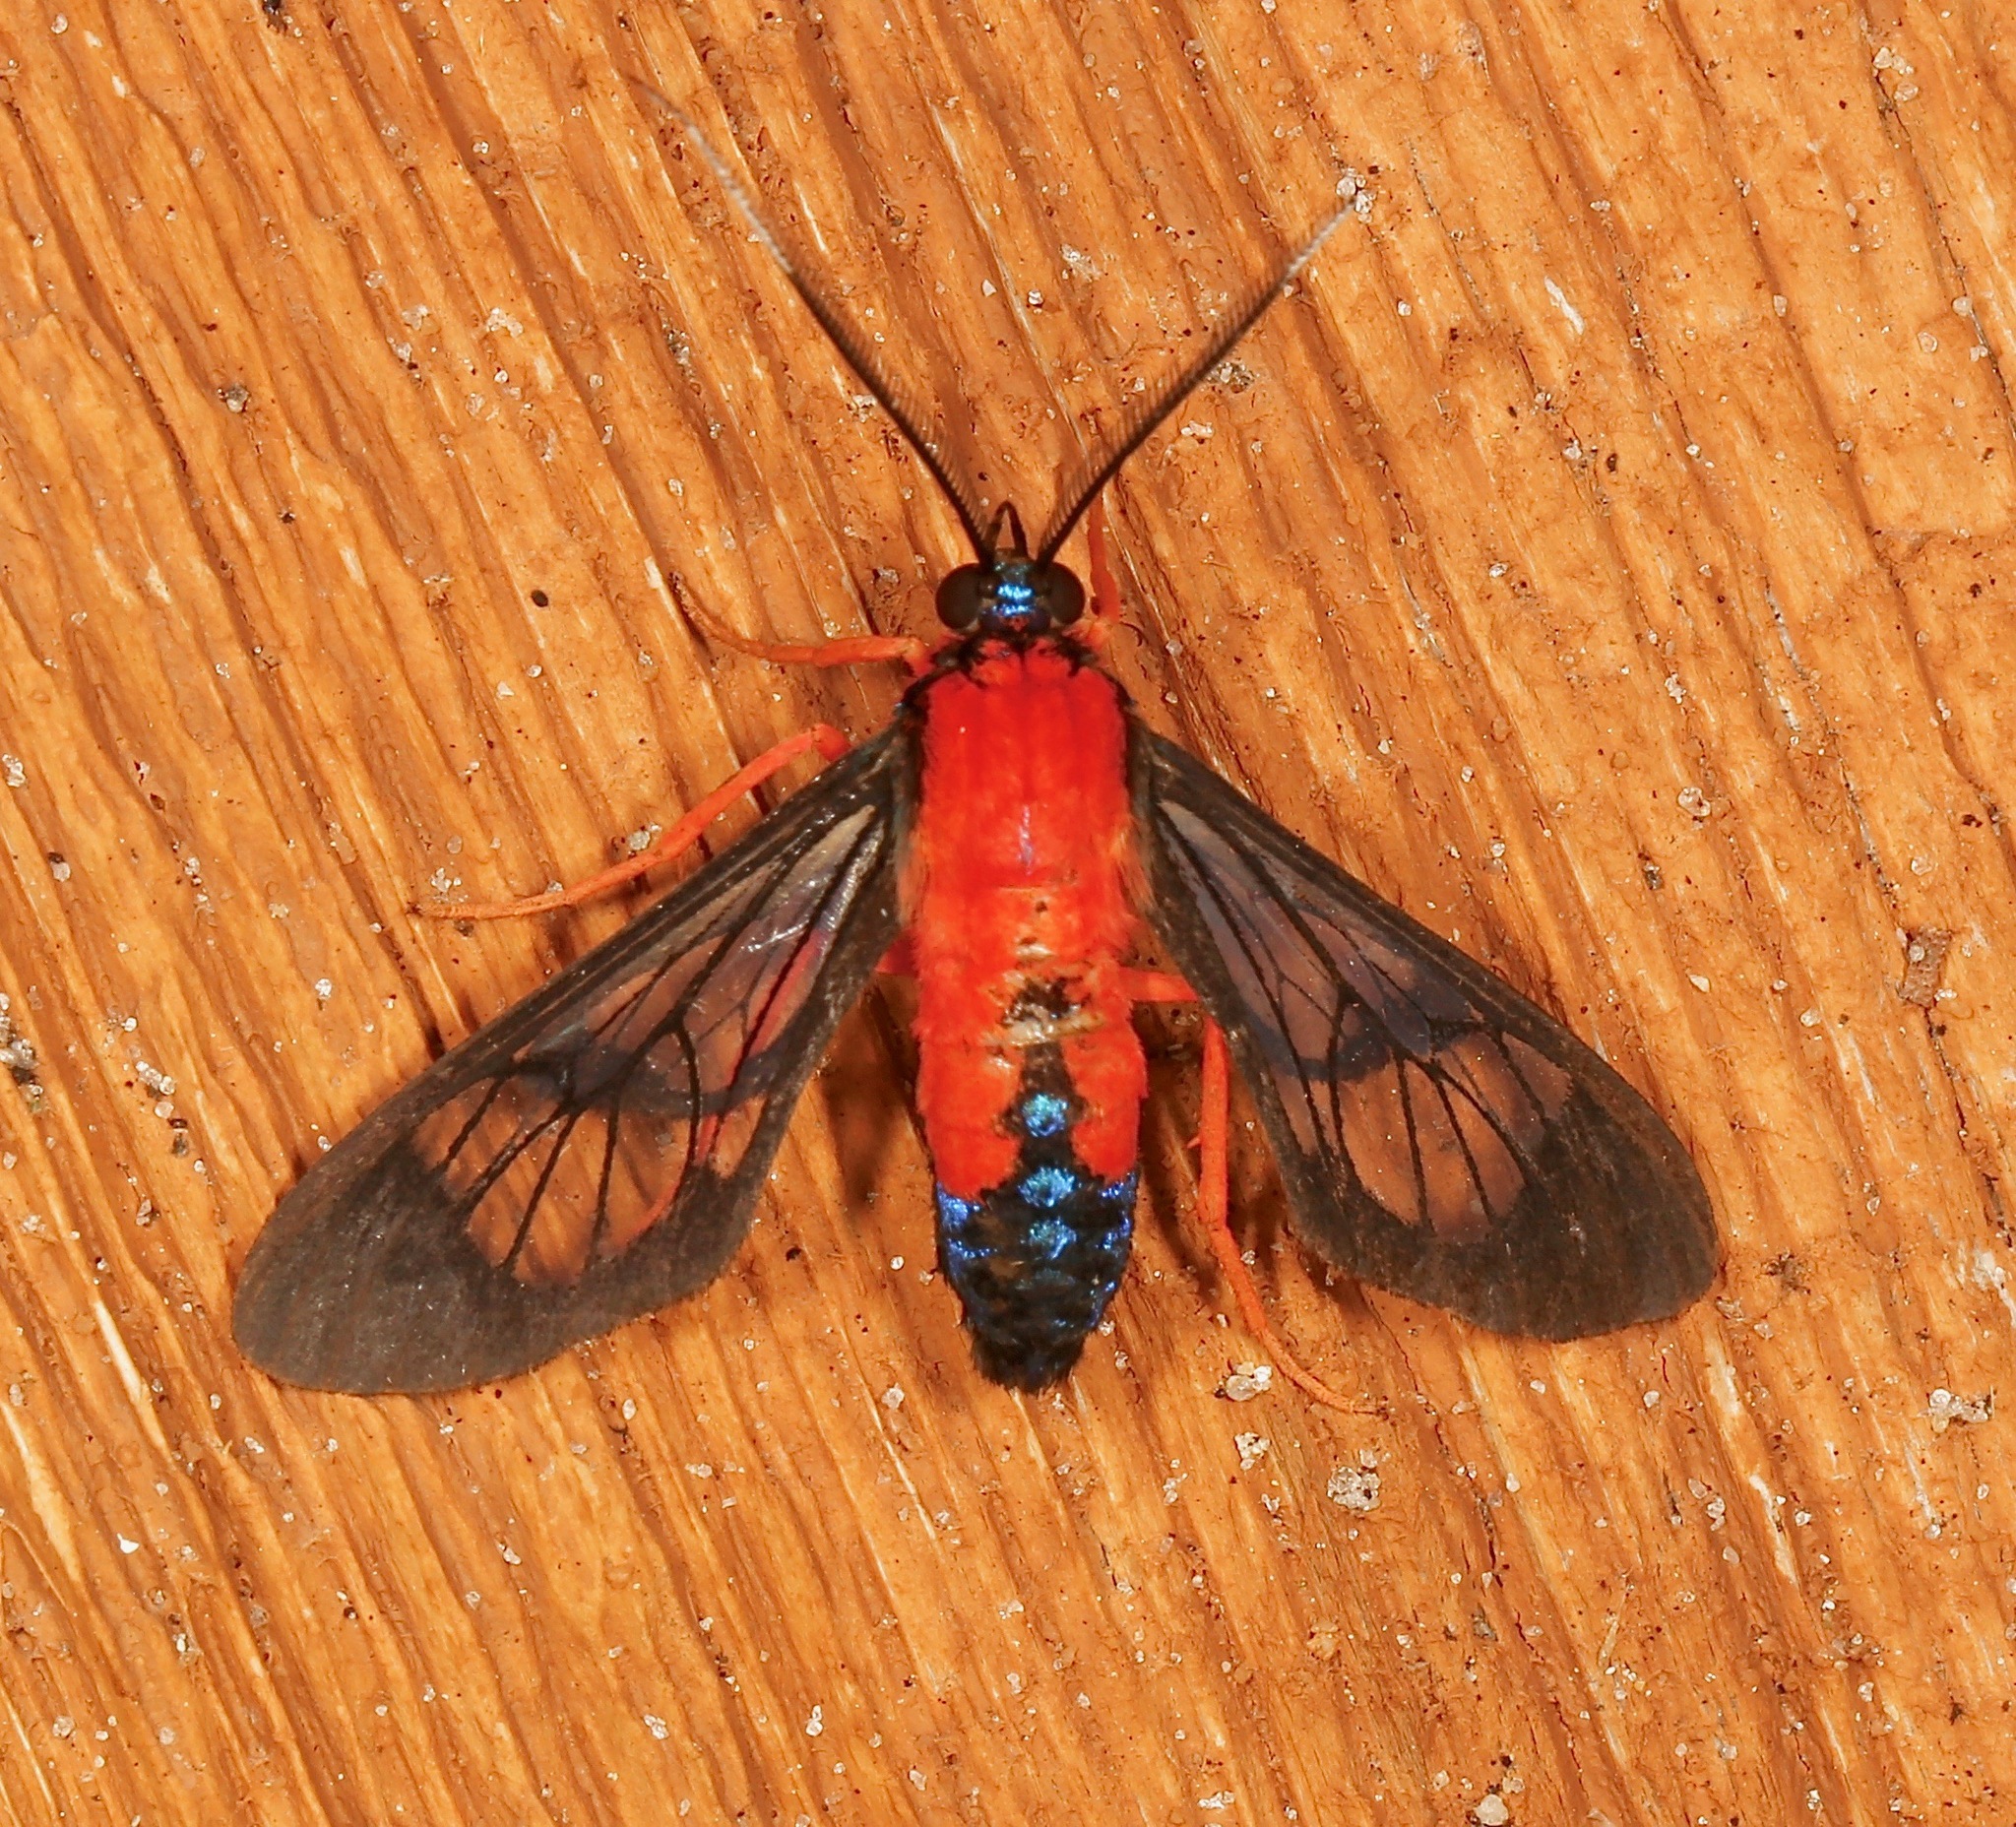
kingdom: Animalia
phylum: Arthropoda
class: Insecta
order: Lepidoptera
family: Erebidae
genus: Cosmosoma
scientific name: Cosmosoma myrodora
